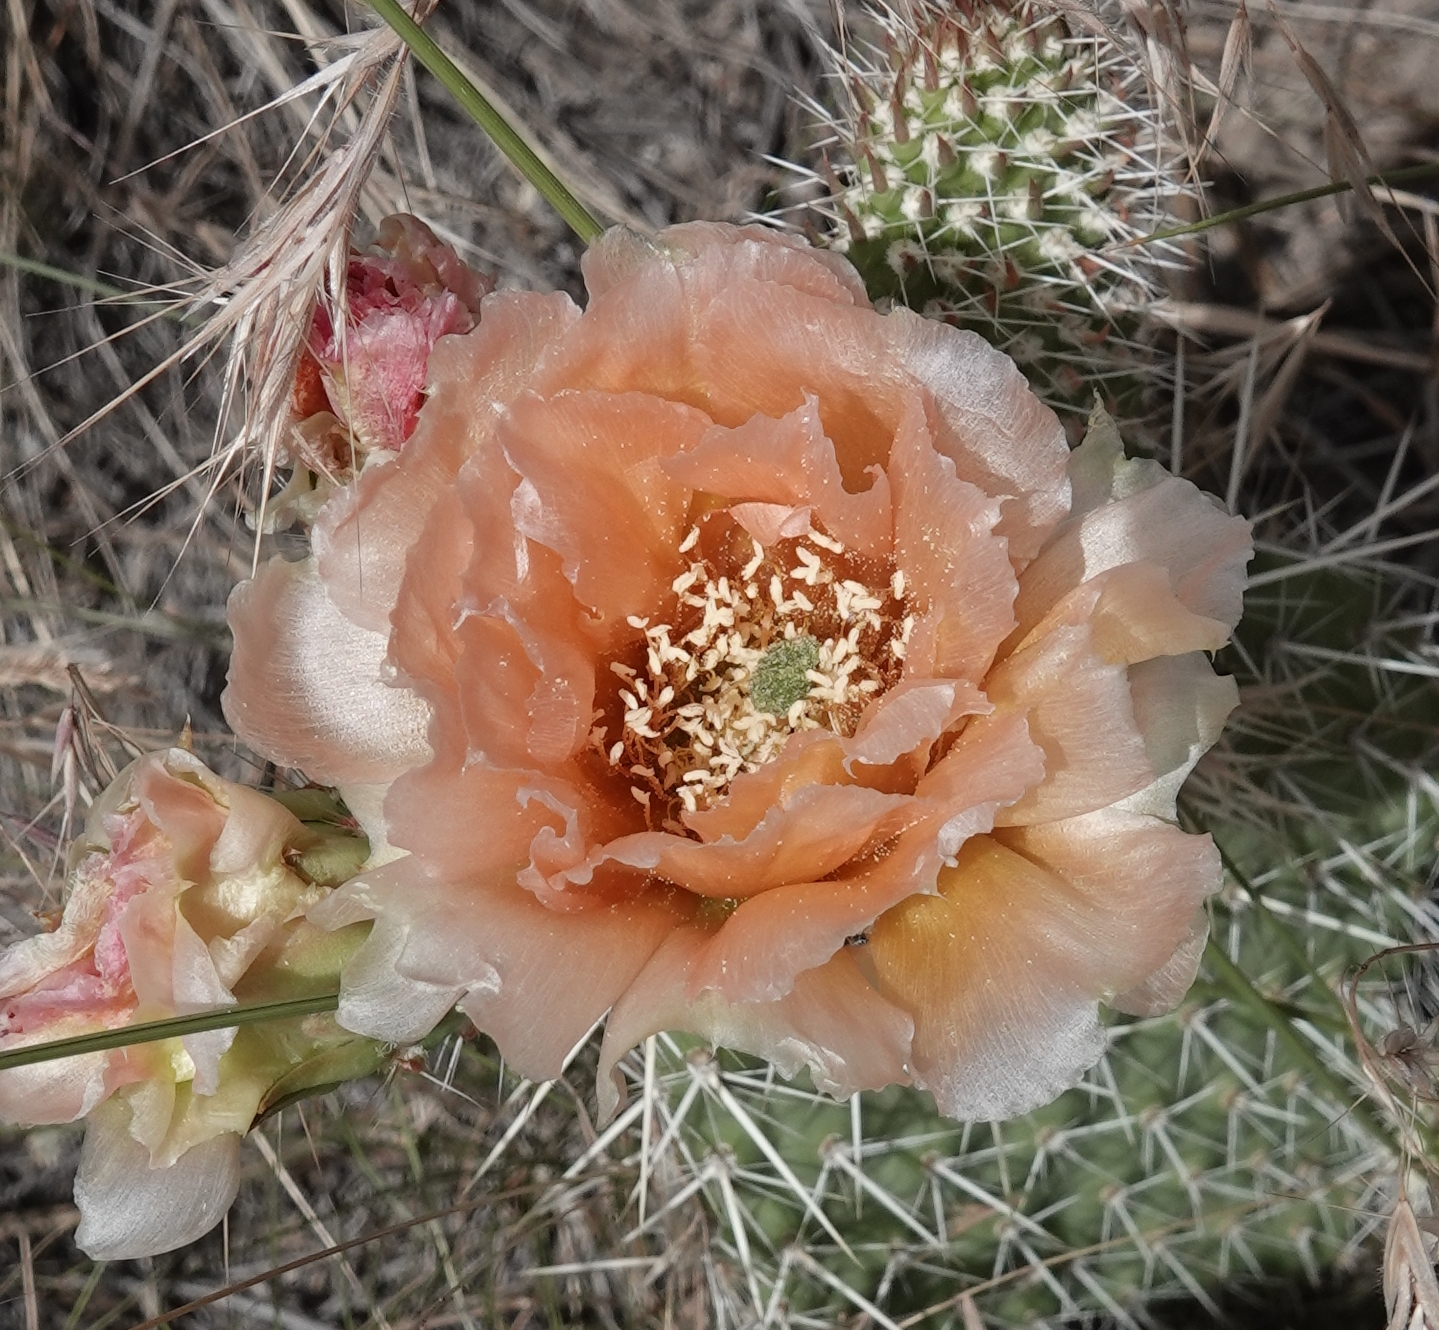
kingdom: Plantae
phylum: Tracheophyta
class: Magnoliopsida
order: Caryophyllales
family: Cactaceae
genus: Opuntia
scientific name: Opuntia polyacantha
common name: Plains prickly-pear
